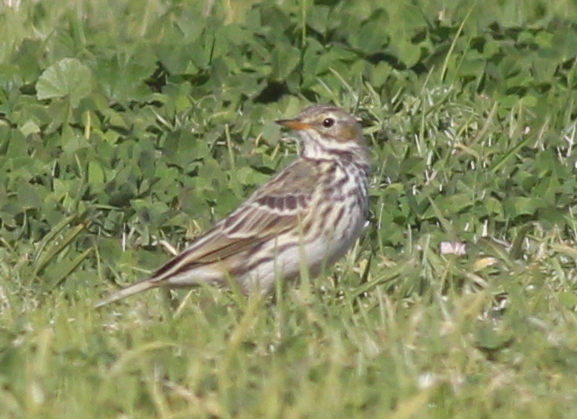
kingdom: Animalia
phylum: Chordata
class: Aves
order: Passeriformes
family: Motacillidae
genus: Anthus
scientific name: Anthus pratensis
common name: Meadow pipit
